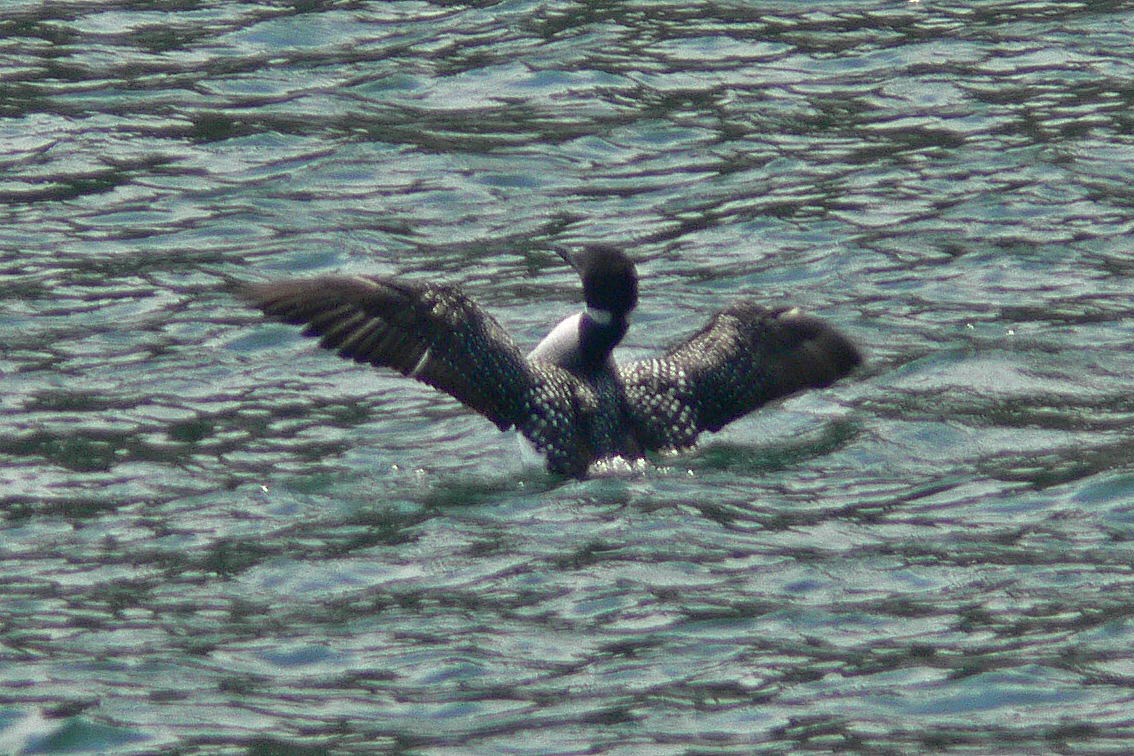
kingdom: Animalia
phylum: Chordata
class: Aves
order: Gaviiformes
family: Gaviidae
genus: Gavia
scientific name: Gavia immer
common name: Common loon
